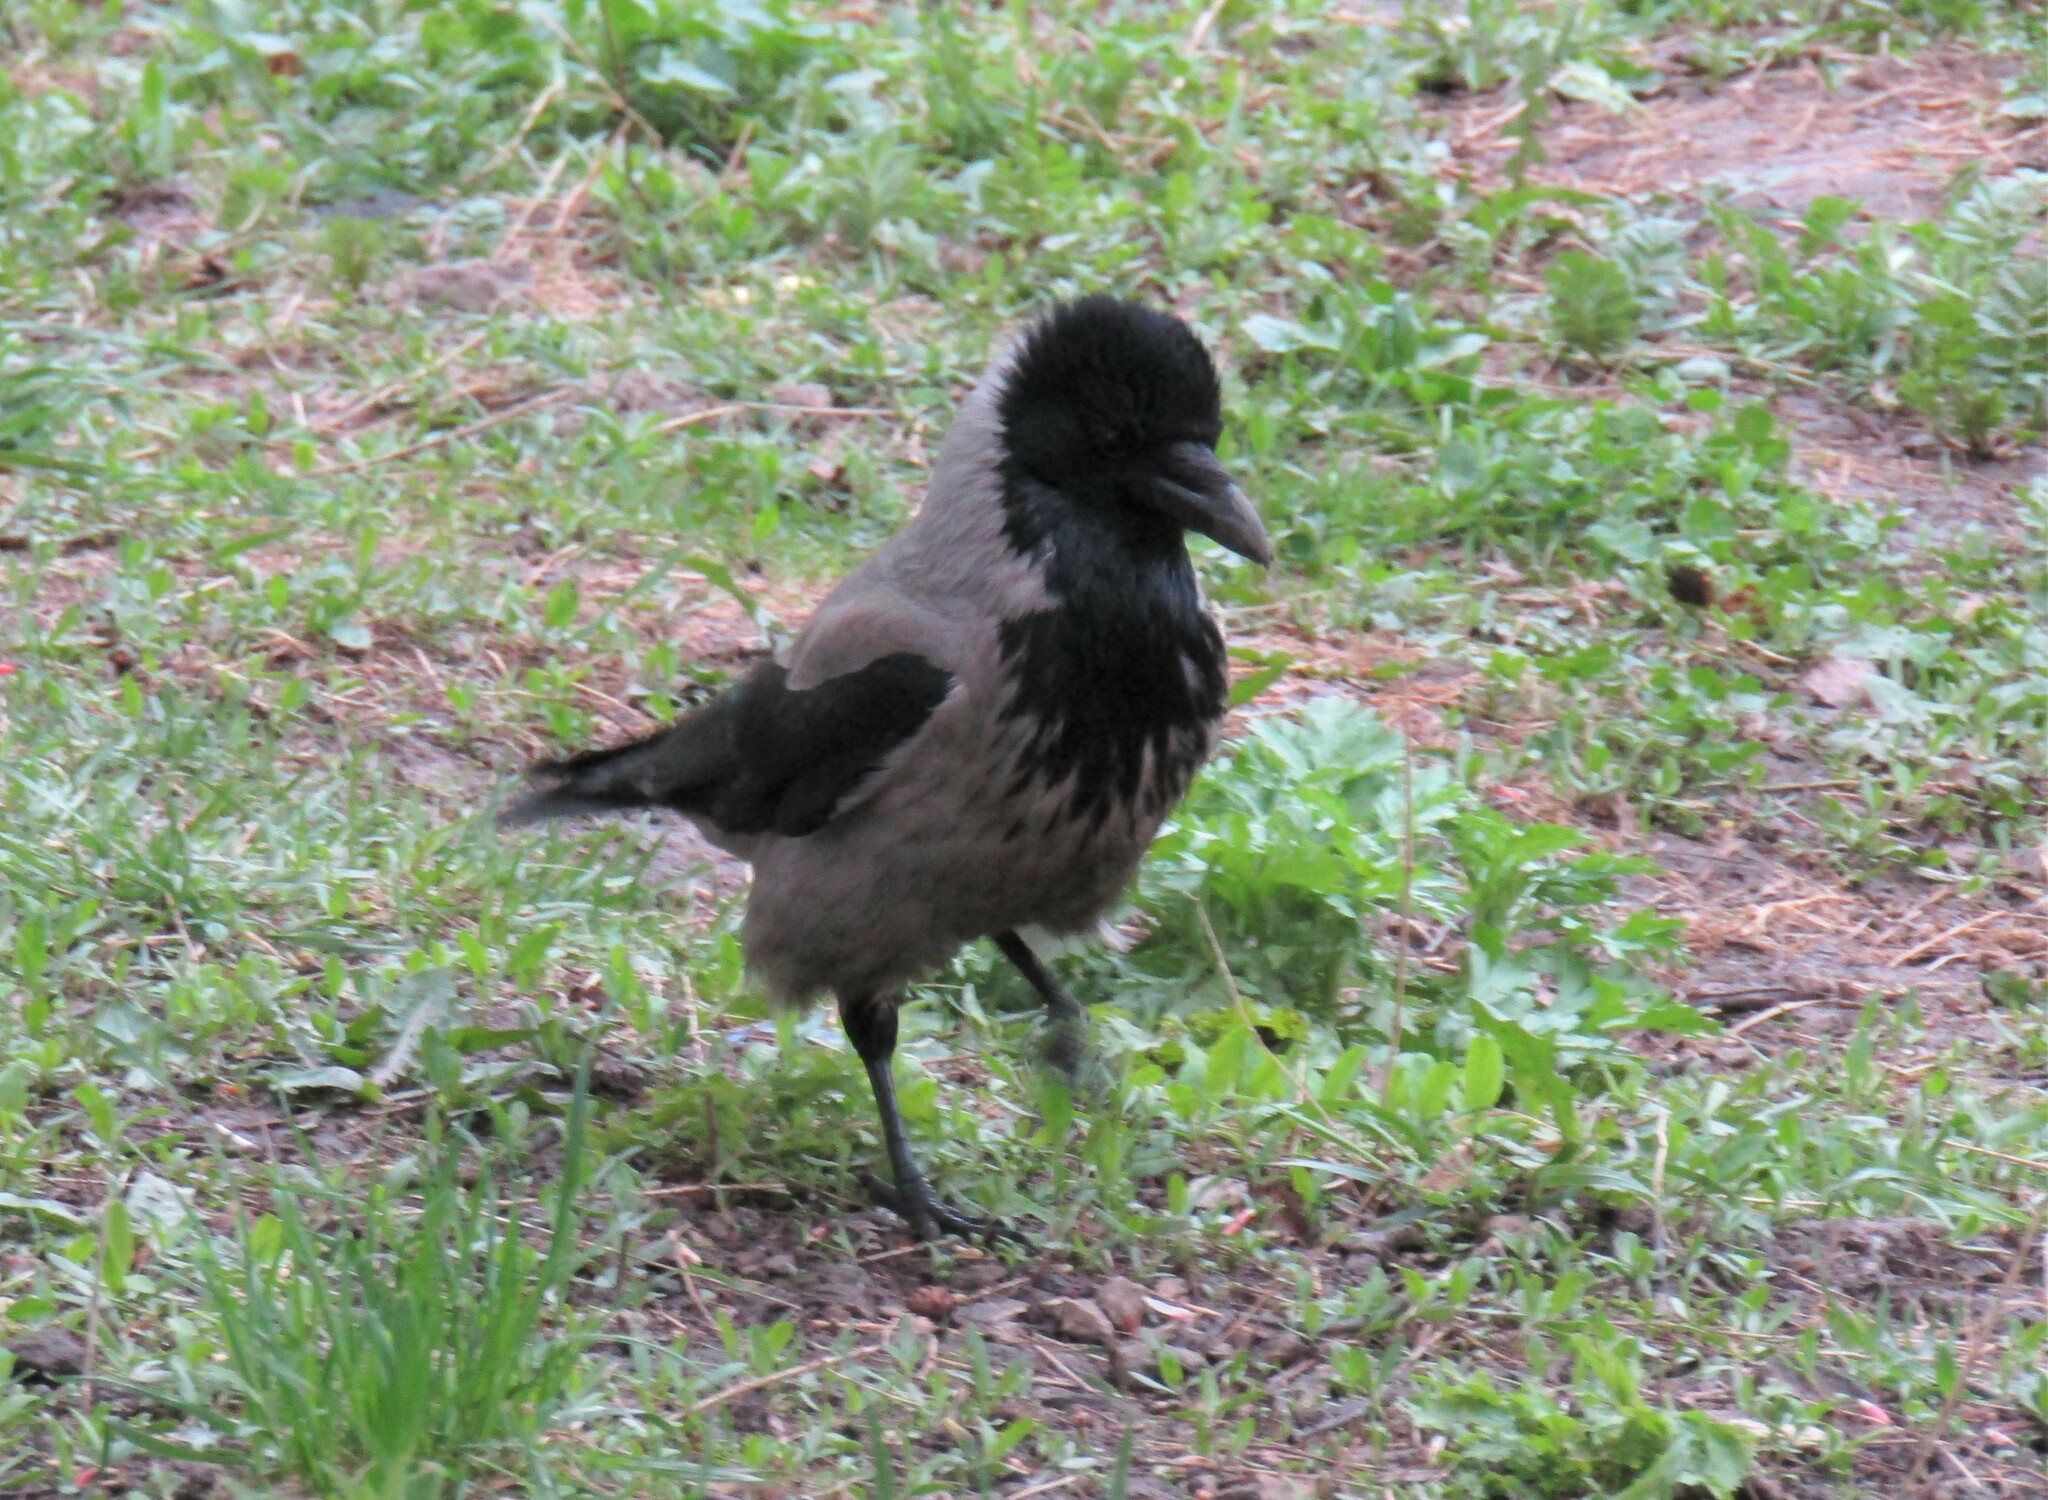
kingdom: Animalia
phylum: Chordata
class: Aves
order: Passeriformes
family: Corvidae
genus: Corvus
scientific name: Corvus cornix
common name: Hooded crow
